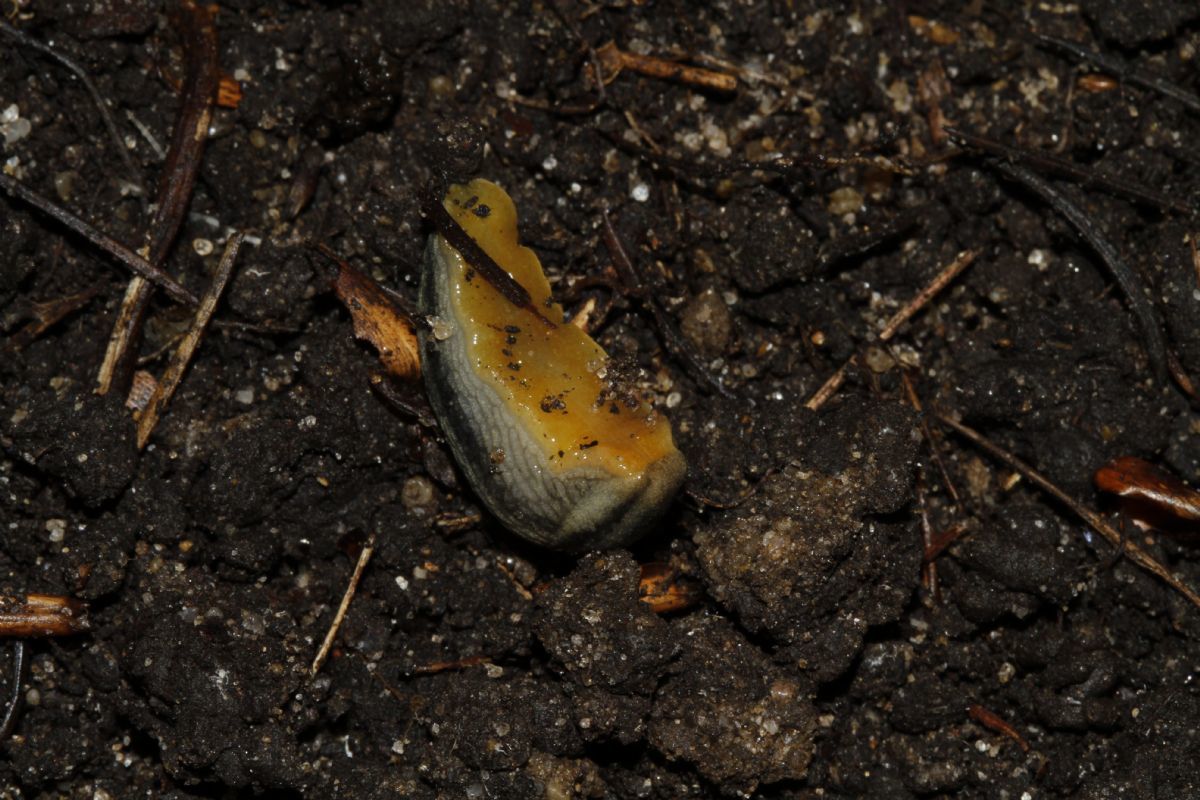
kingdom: Animalia
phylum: Mollusca
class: Gastropoda
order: Stylommatophora
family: Arionidae
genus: Arion
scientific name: Arion hortensis
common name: Garden arion
